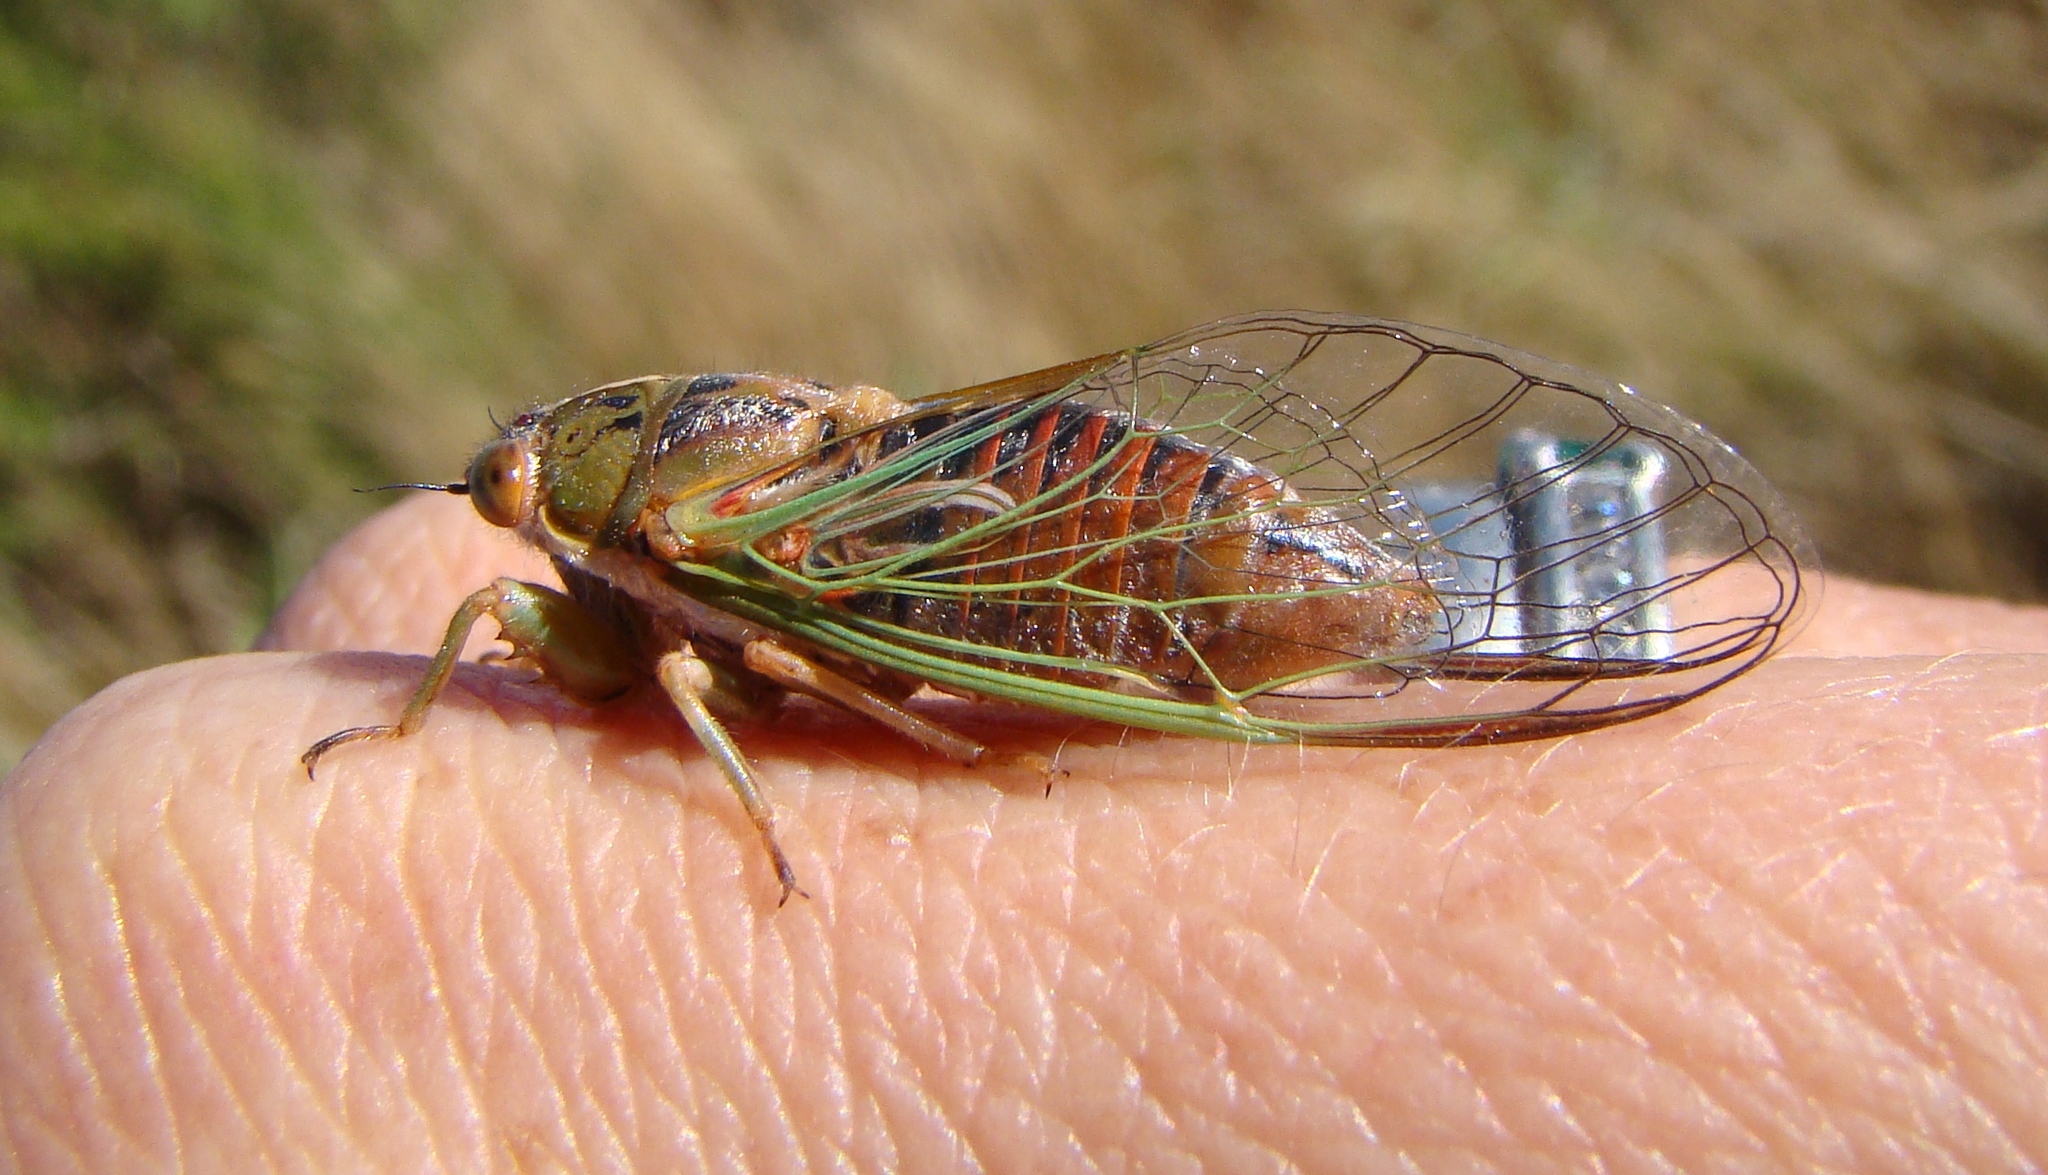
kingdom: Animalia
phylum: Arthropoda
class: Insecta
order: Hemiptera
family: Cicadidae
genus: Rhodopsalta
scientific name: Rhodopsalta cruentata
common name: Blood redtail cicada
